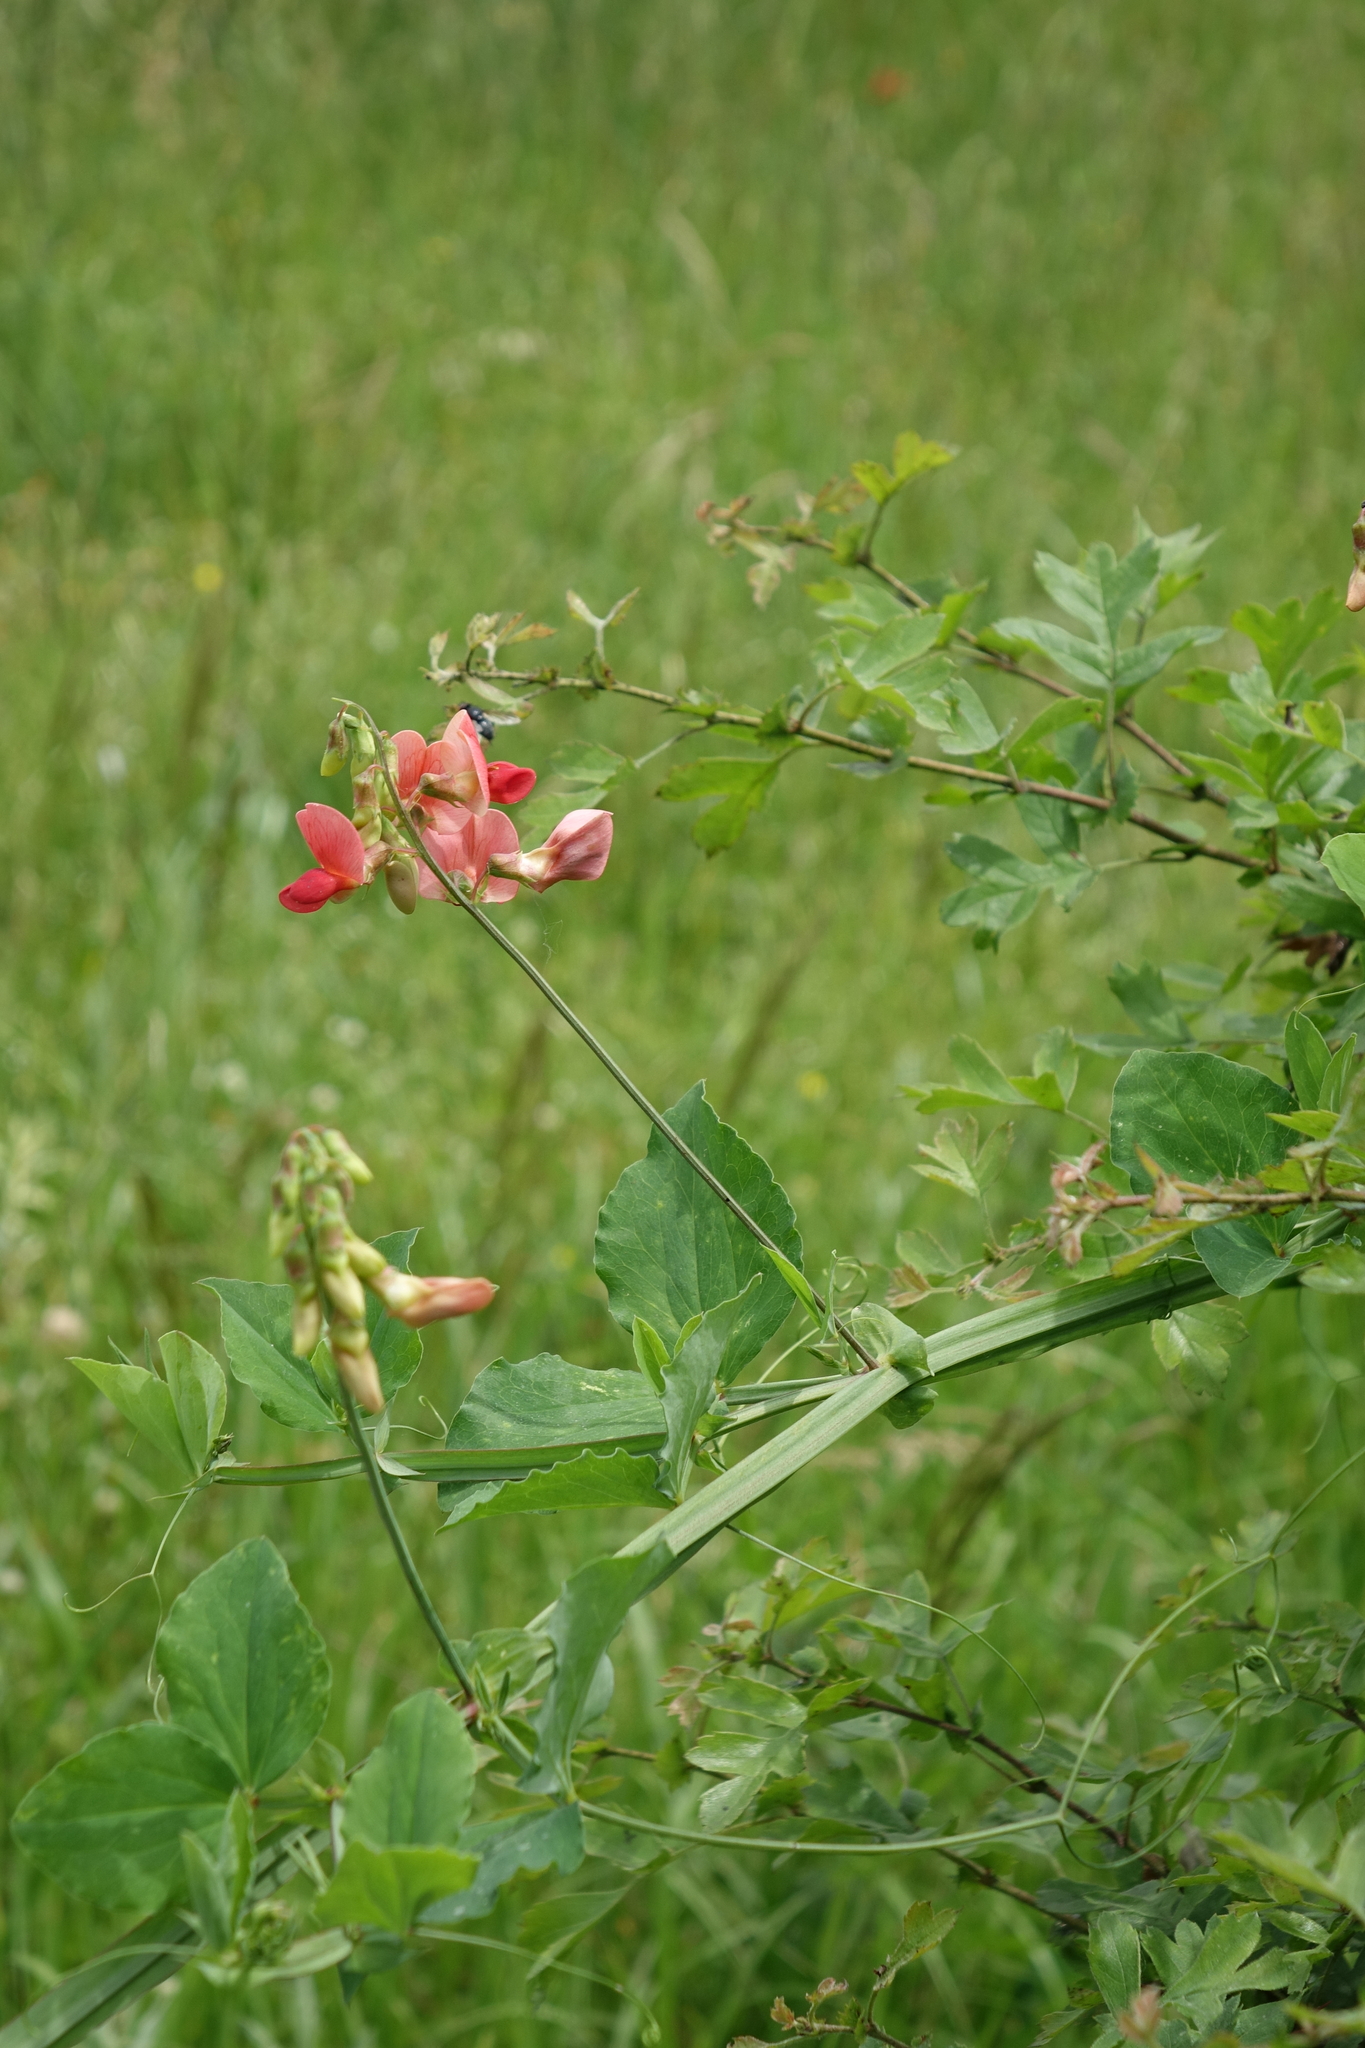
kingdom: Plantae
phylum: Tracheophyta
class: Magnoliopsida
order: Fabales
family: Fabaceae
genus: Lathyrus
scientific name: Lathyrus miniatus
